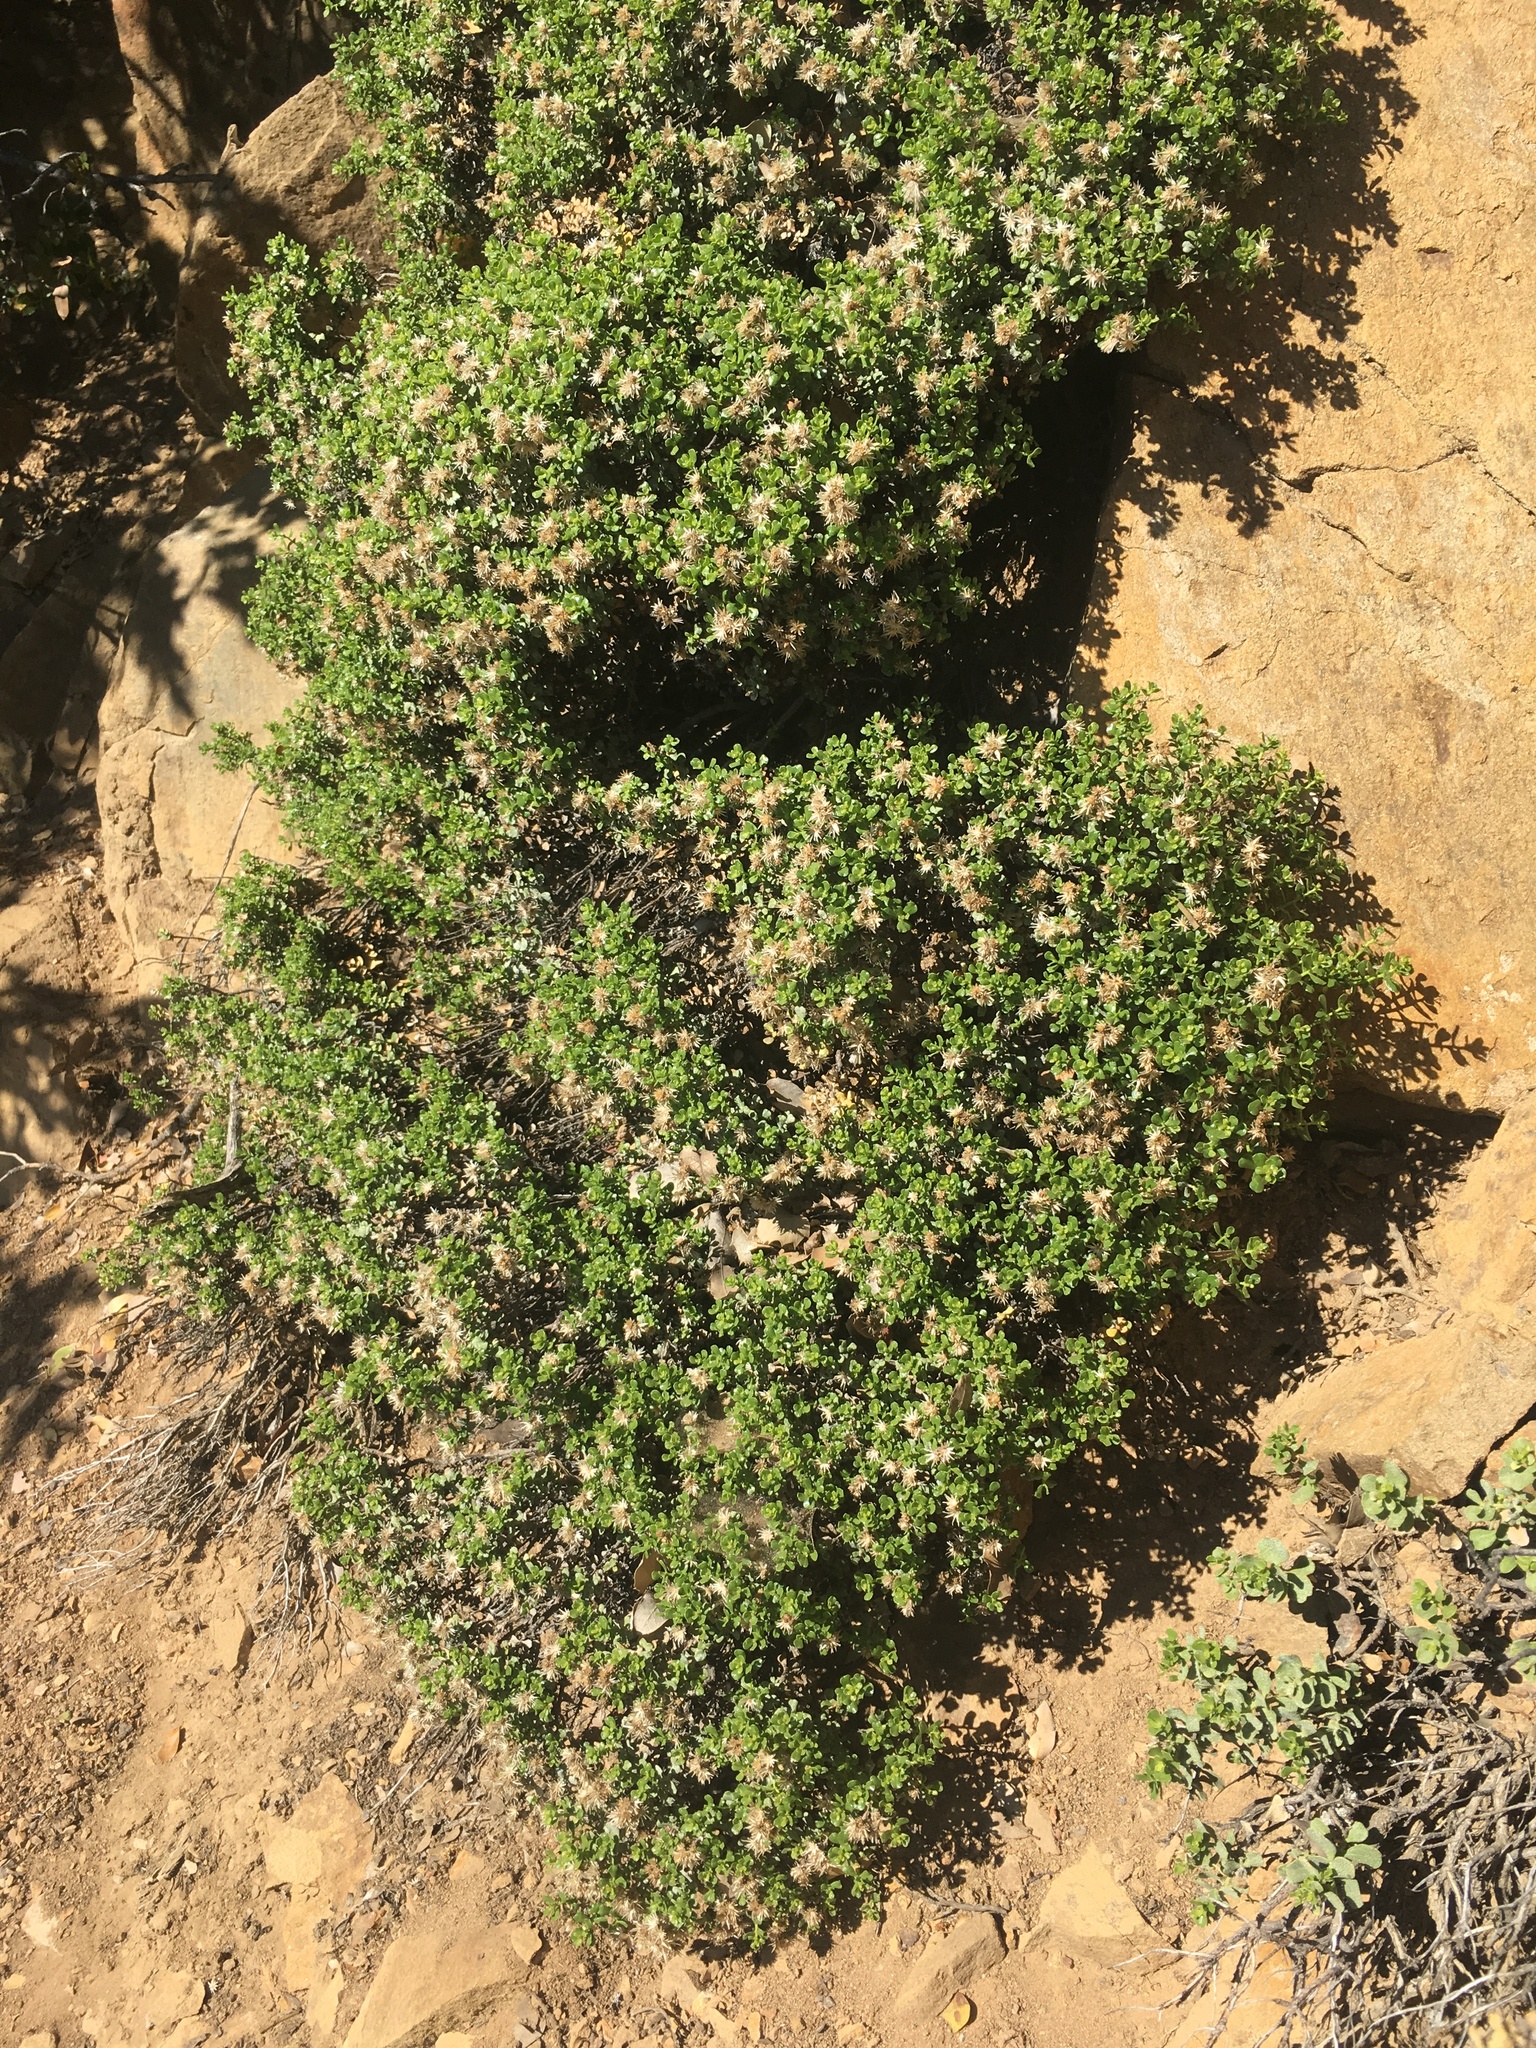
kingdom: Plantae
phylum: Tracheophyta
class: Magnoliopsida
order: Asterales
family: Asteraceae
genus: Ericameria
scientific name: Ericameria cuneata
